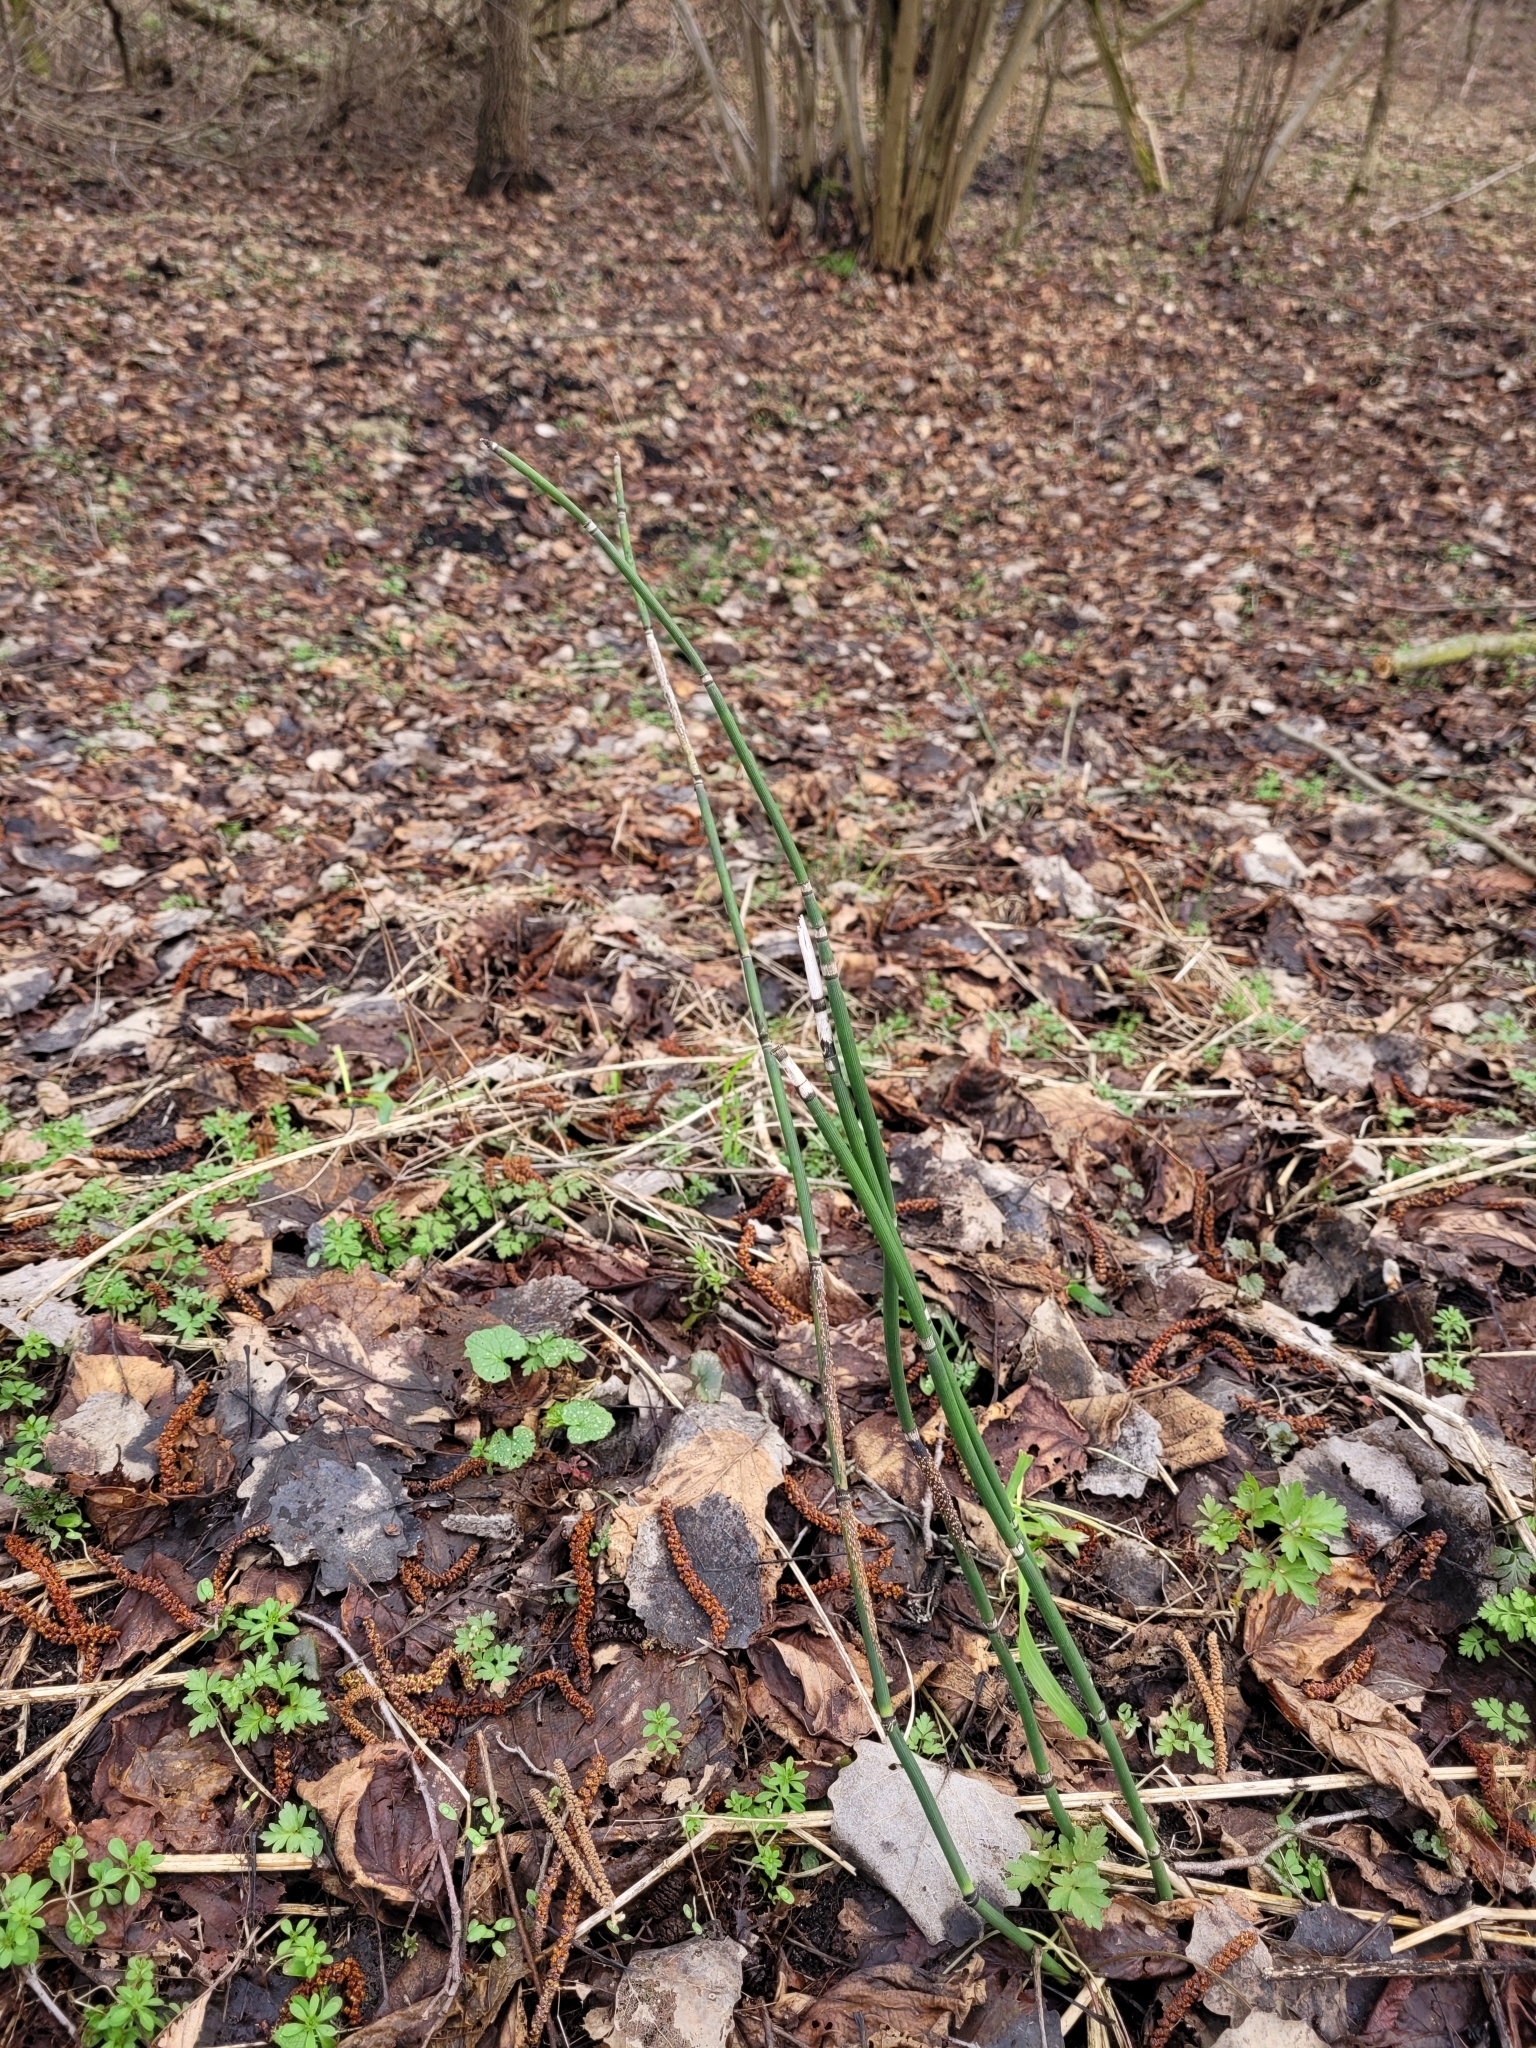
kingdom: Plantae
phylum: Tracheophyta
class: Polypodiopsida
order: Equisetales
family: Equisetaceae
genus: Equisetum
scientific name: Equisetum hyemale
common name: Rough horsetail
